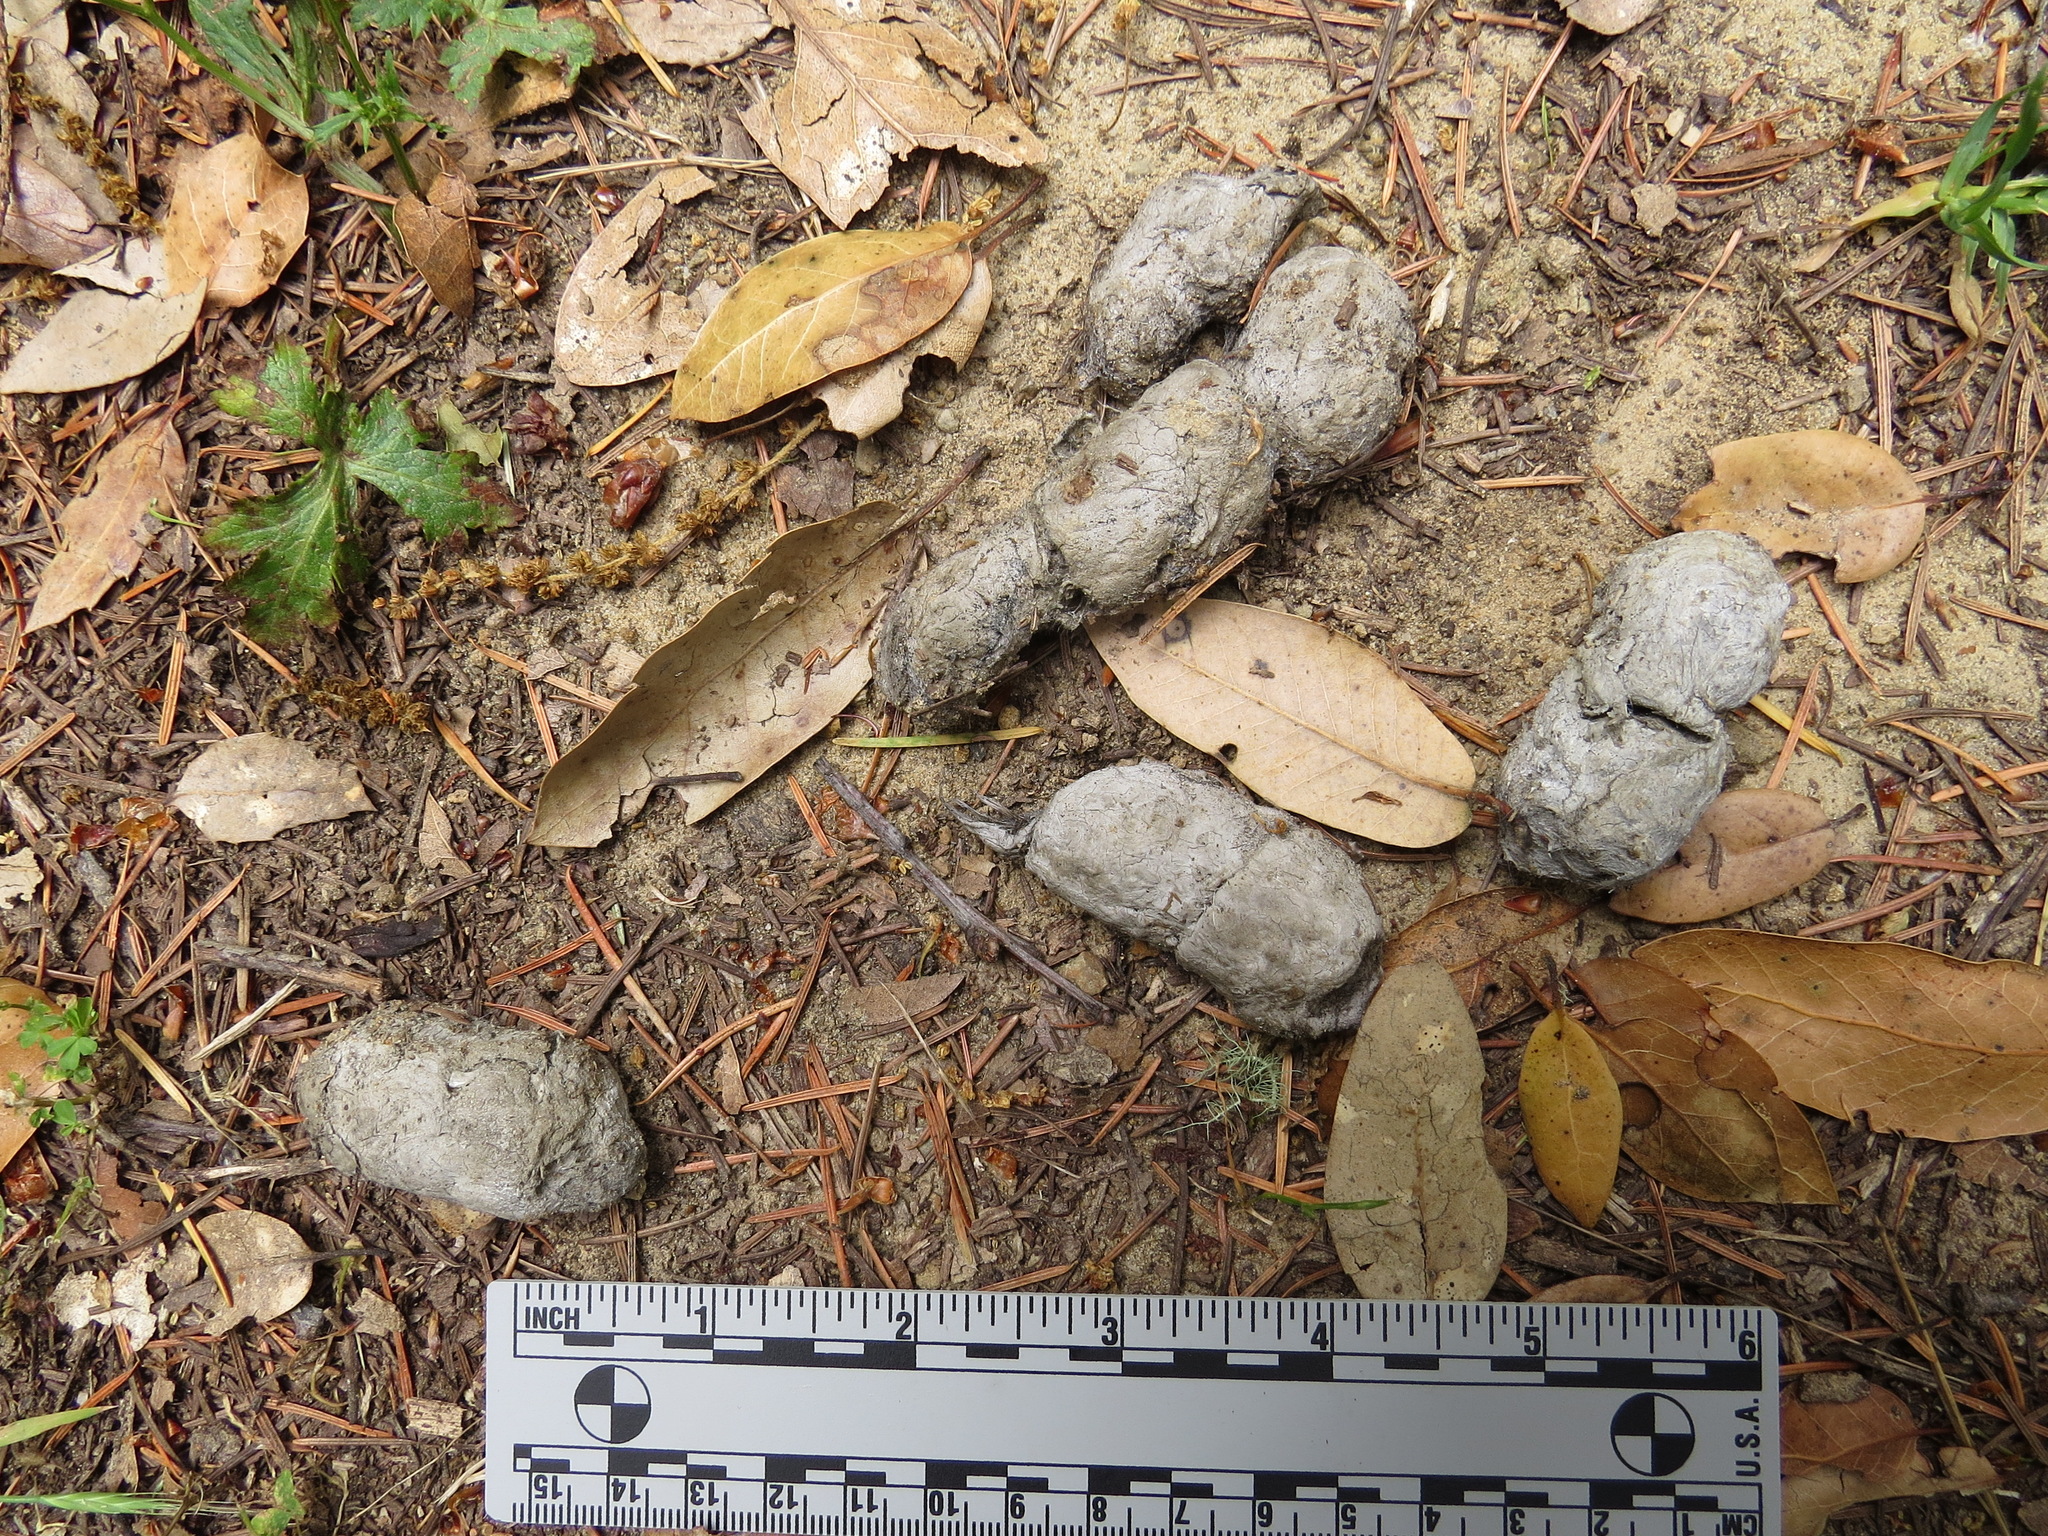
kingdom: Animalia
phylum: Chordata
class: Mammalia
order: Carnivora
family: Felidae
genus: Lynx
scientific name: Lynx rufus
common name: Bobcat
